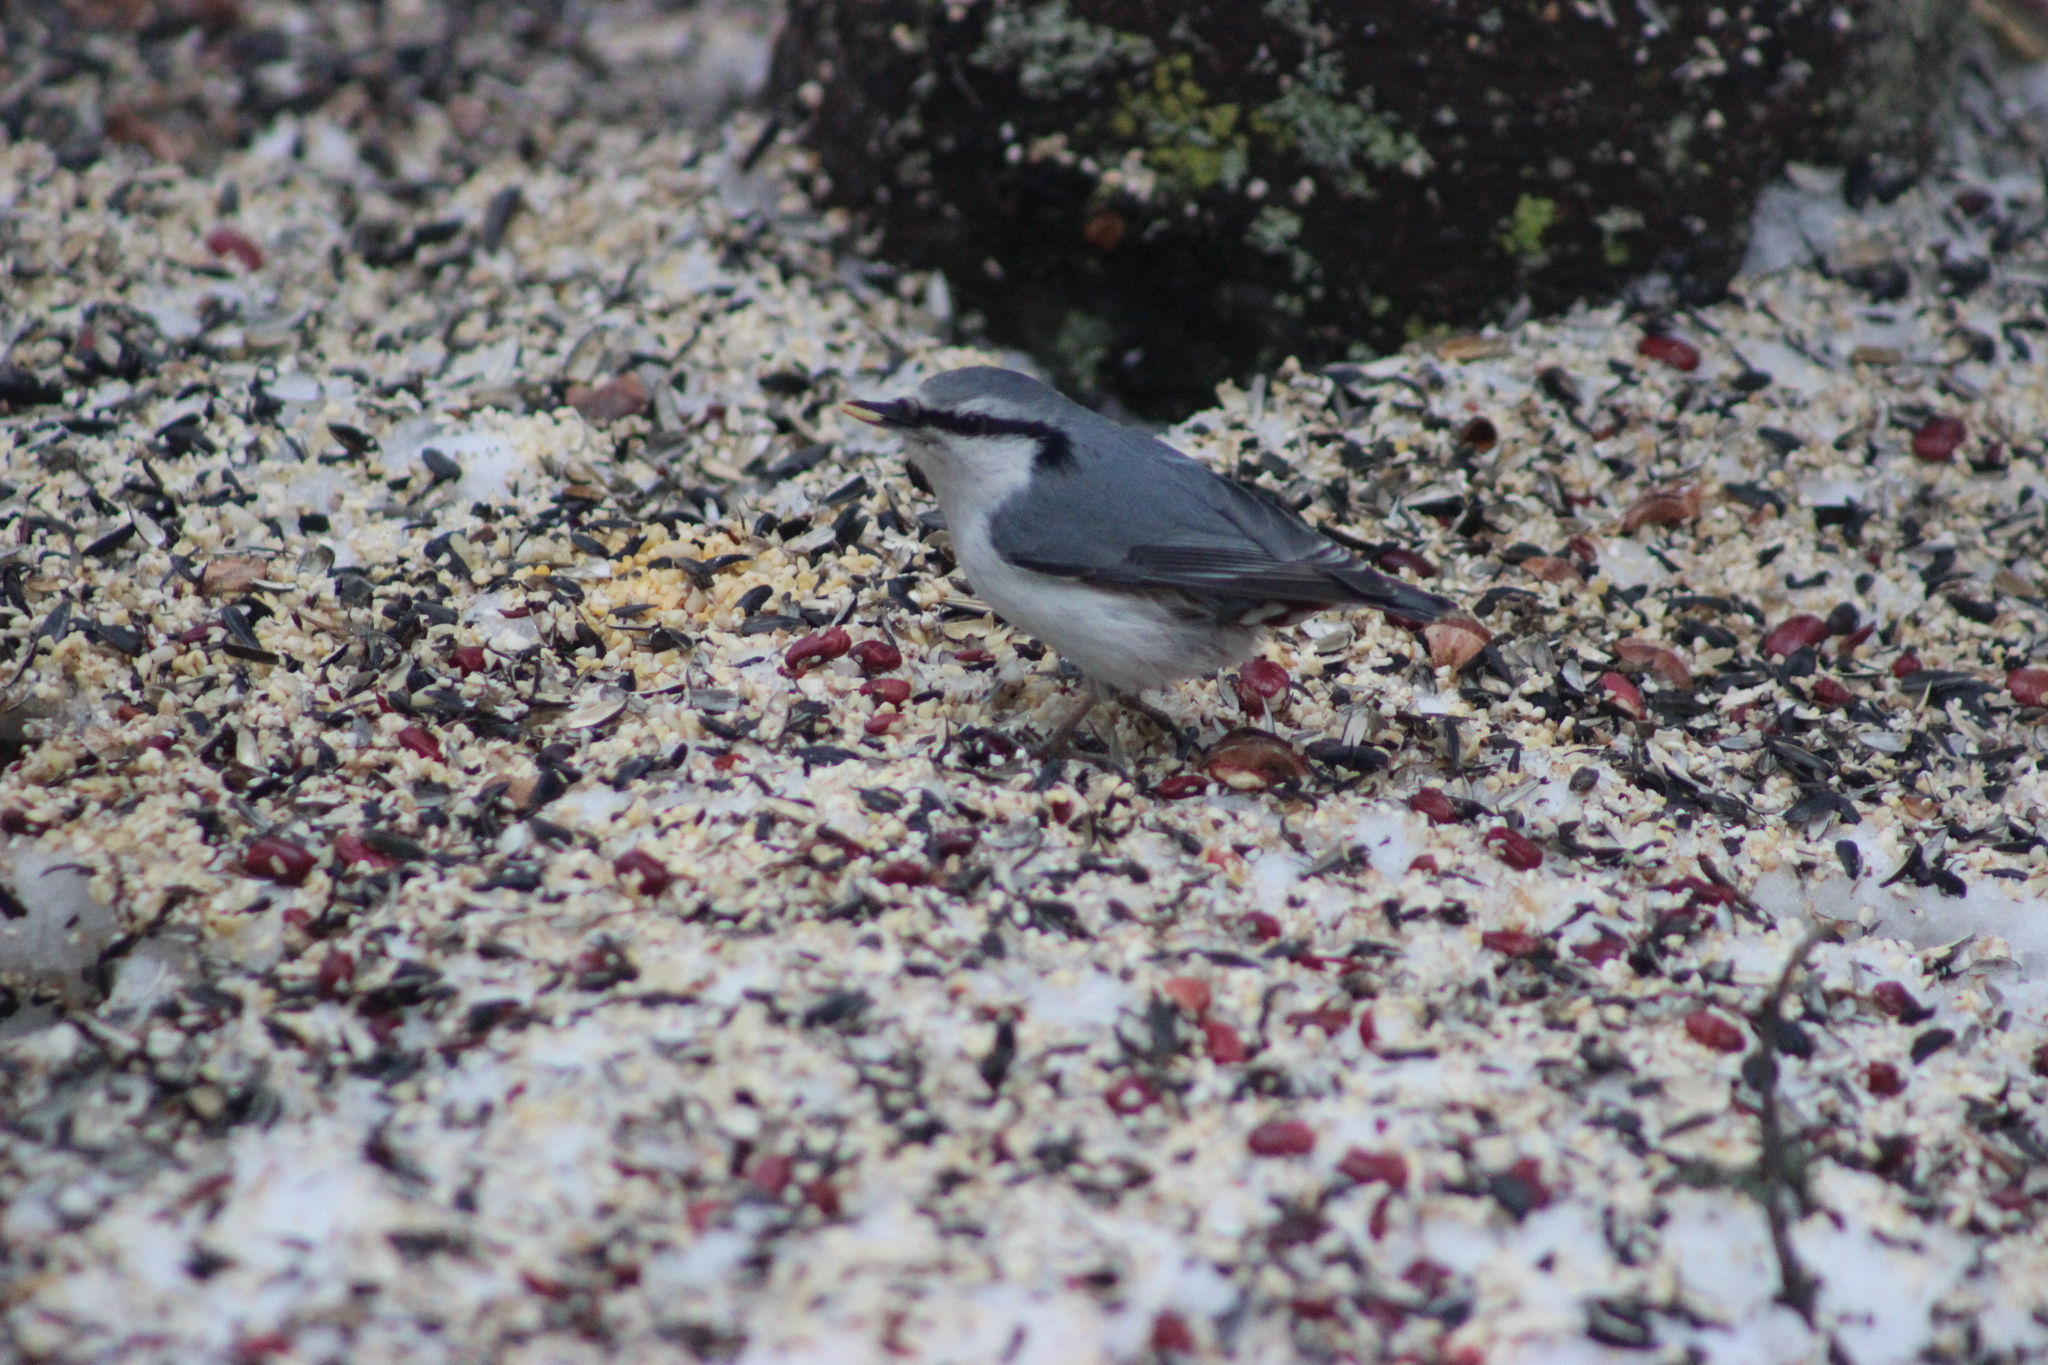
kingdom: Animalia
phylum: Chordata
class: Aves
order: Passeriformes
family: Sittidae
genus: Sitta
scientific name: Sitta europaea
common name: Eurasian nuthatch
